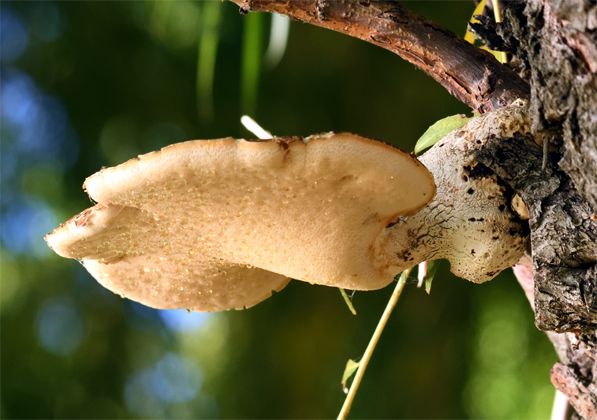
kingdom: Fungi
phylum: Basidiomycota
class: Agaricomycetes
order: Polyporales
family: Polyporaceae
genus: Cerioporus
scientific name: Cerioporus squamosus
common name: Dryad's saddle
